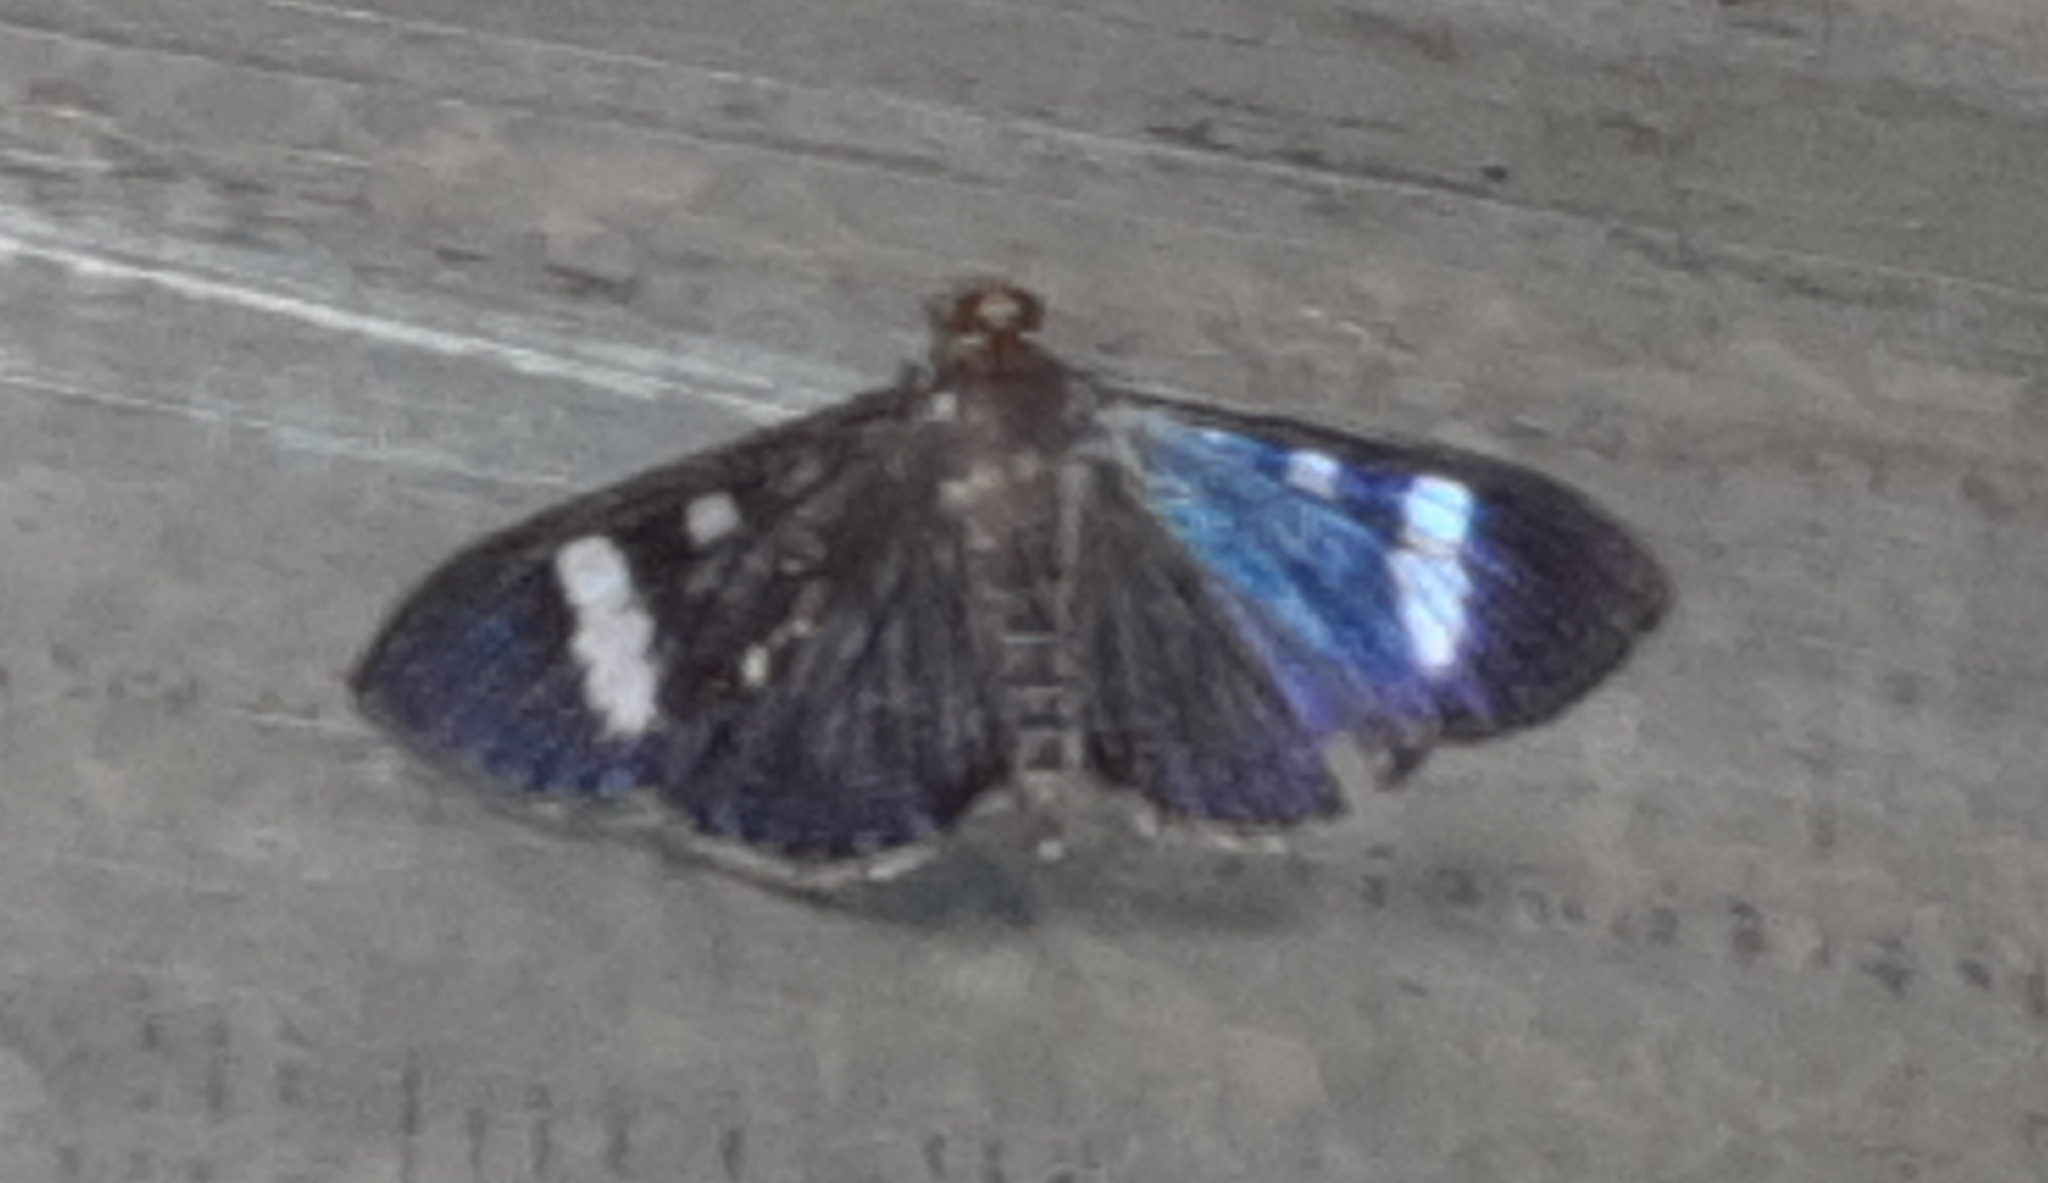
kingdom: Animalia
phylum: Arthropoda
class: Insecta
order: Lepidoptera
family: Crambidae
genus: Phostria
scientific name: Phostria Erilusa leucoplagialis
